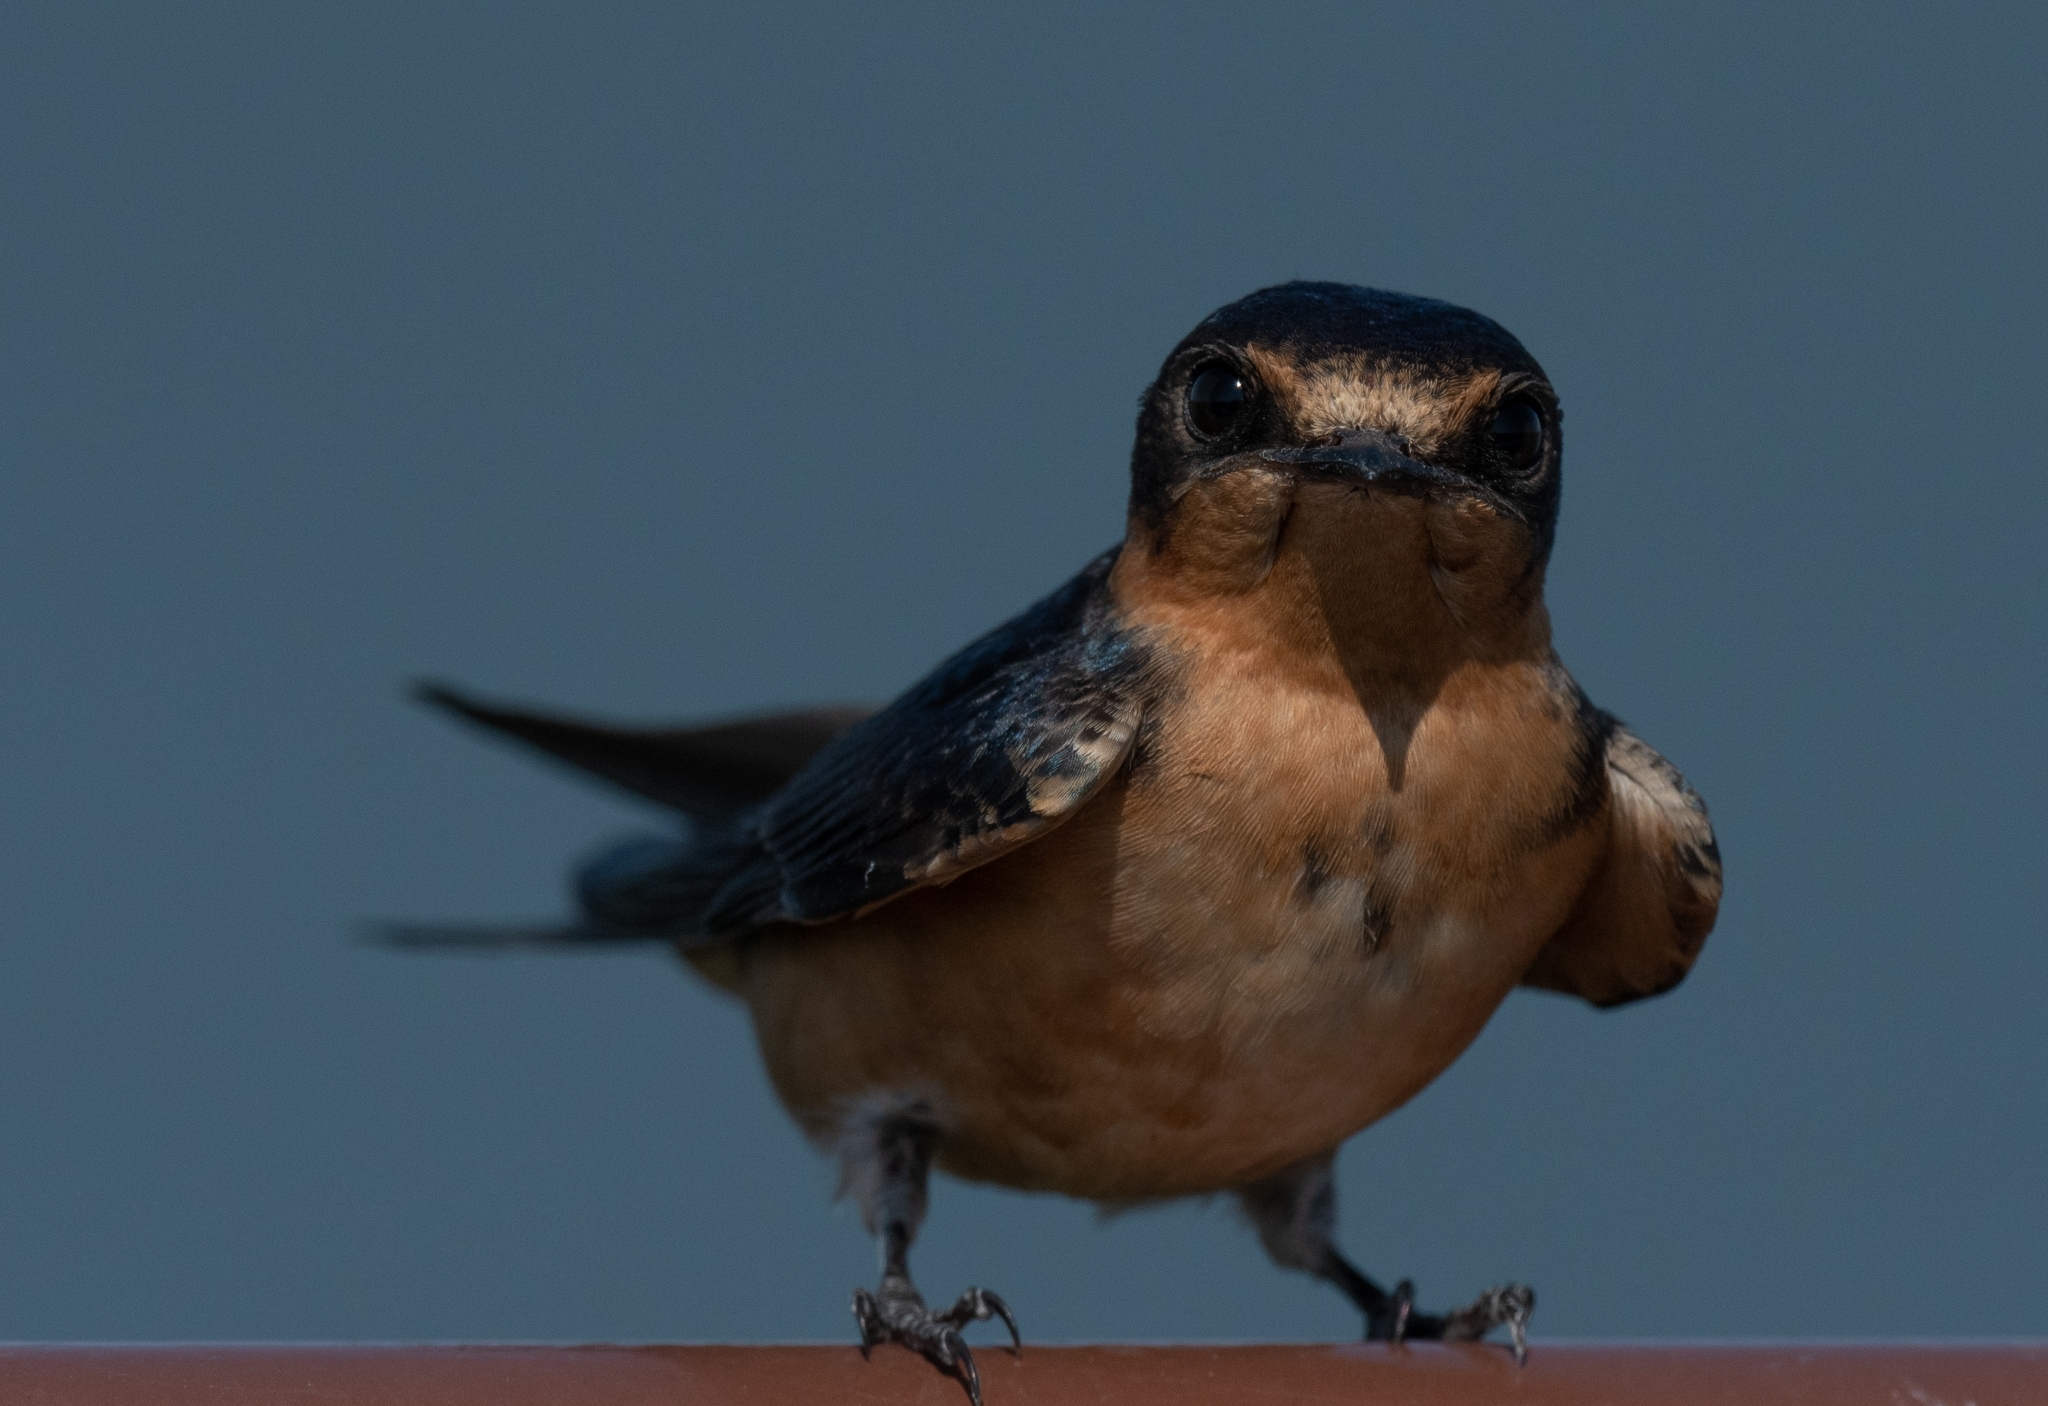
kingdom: Animalia
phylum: Chordata
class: Aves
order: Passeriformes
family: Hirundinidae
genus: Hirundo
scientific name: Hirundo rustica
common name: Barn swallow
